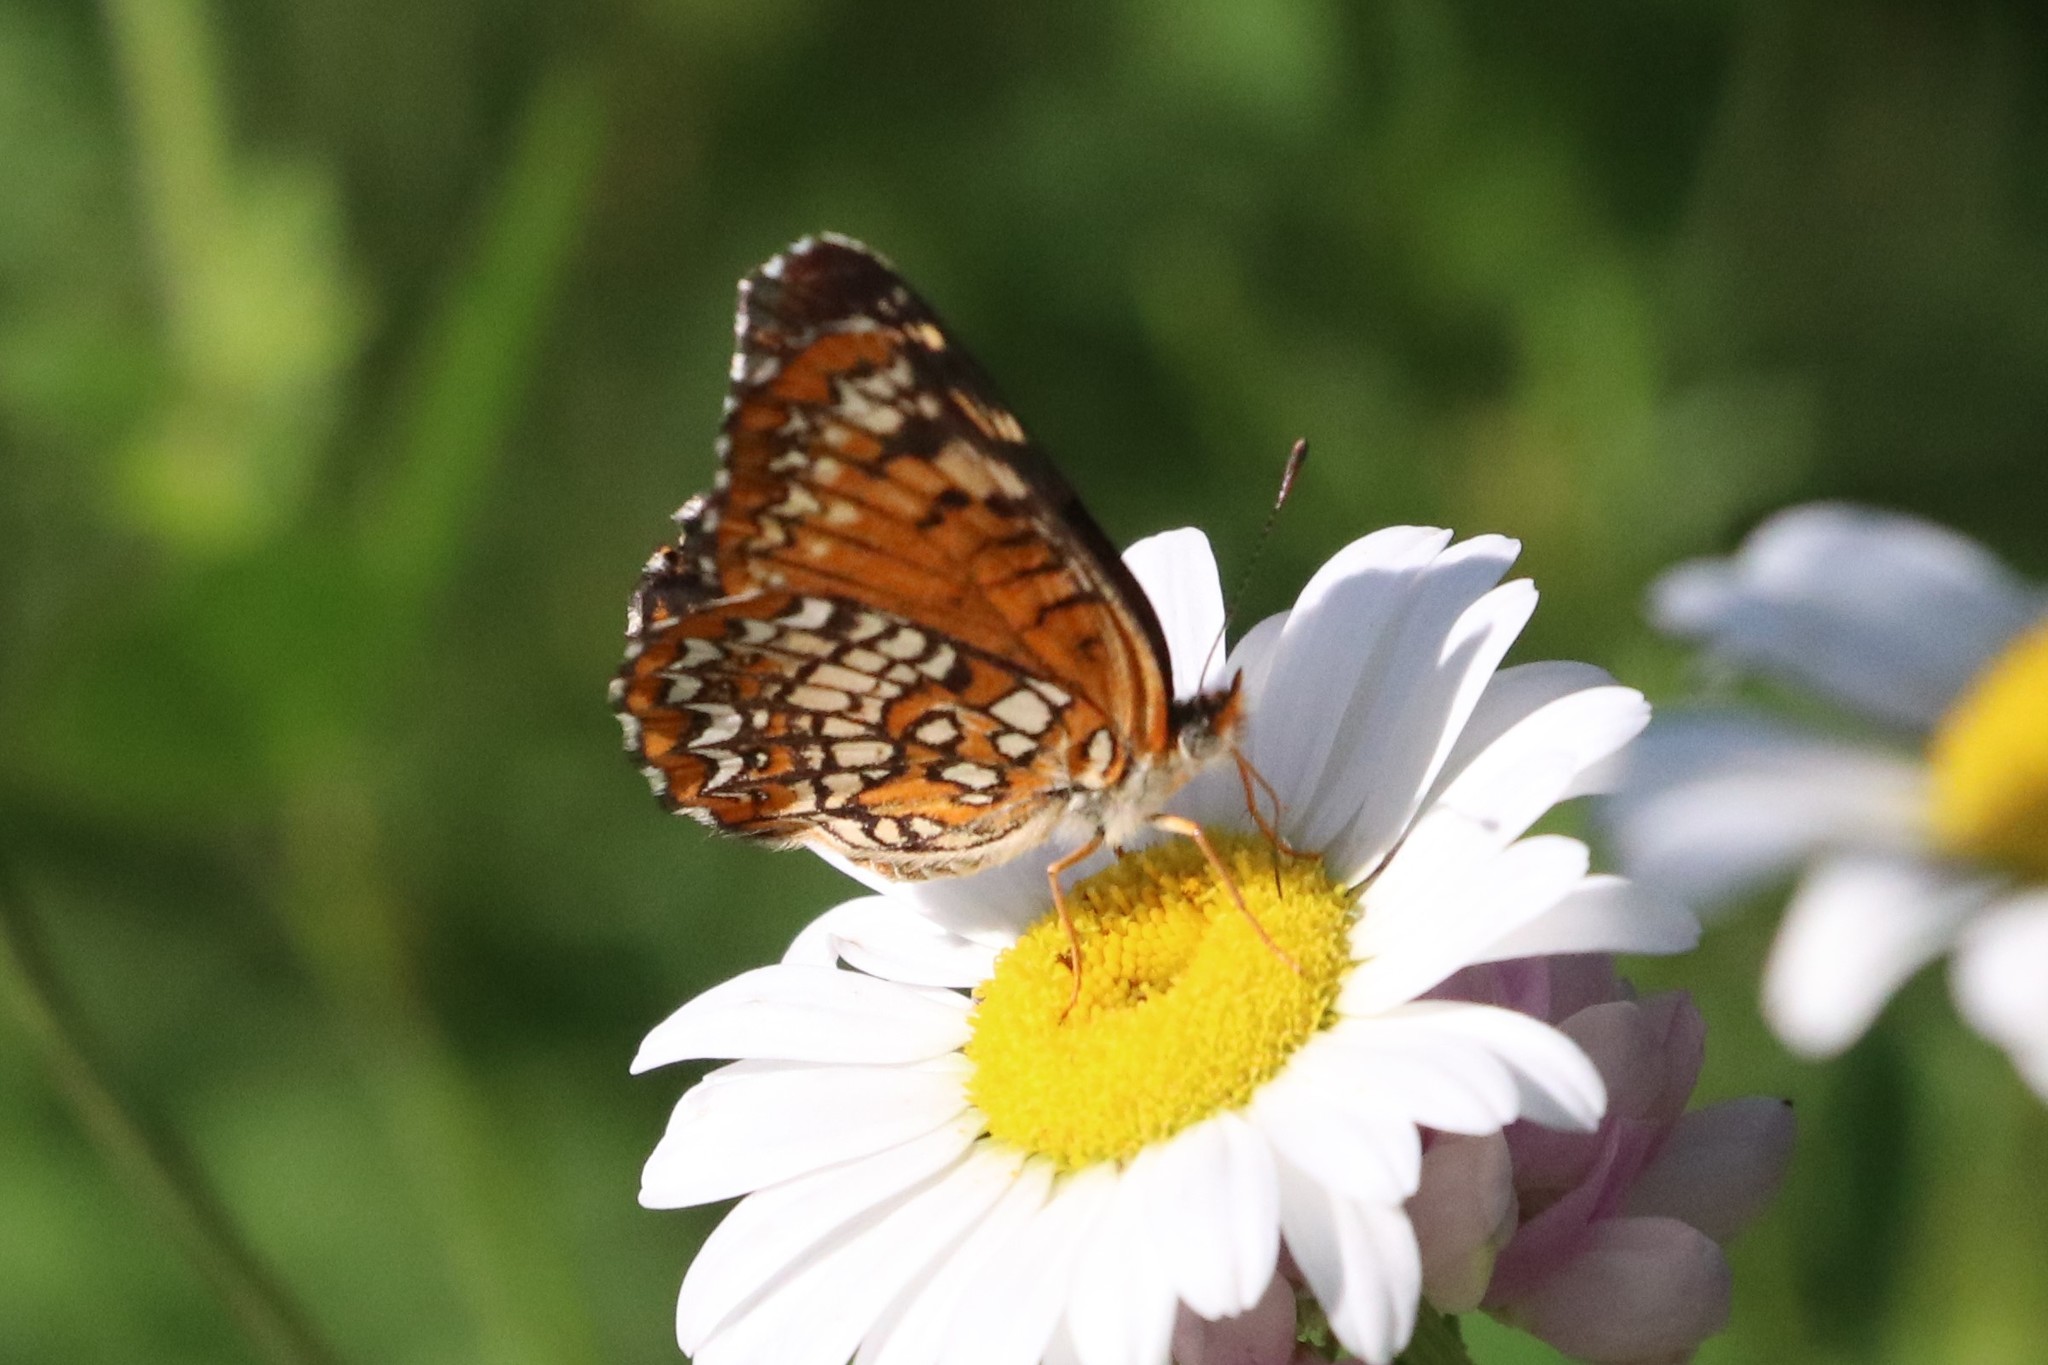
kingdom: Animalia
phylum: Arthropoda
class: Insecta
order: Lepidoptera
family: Nymphalidae
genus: Chlosyne
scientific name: Chlosyne harrisii
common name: Harris's checkerspot
